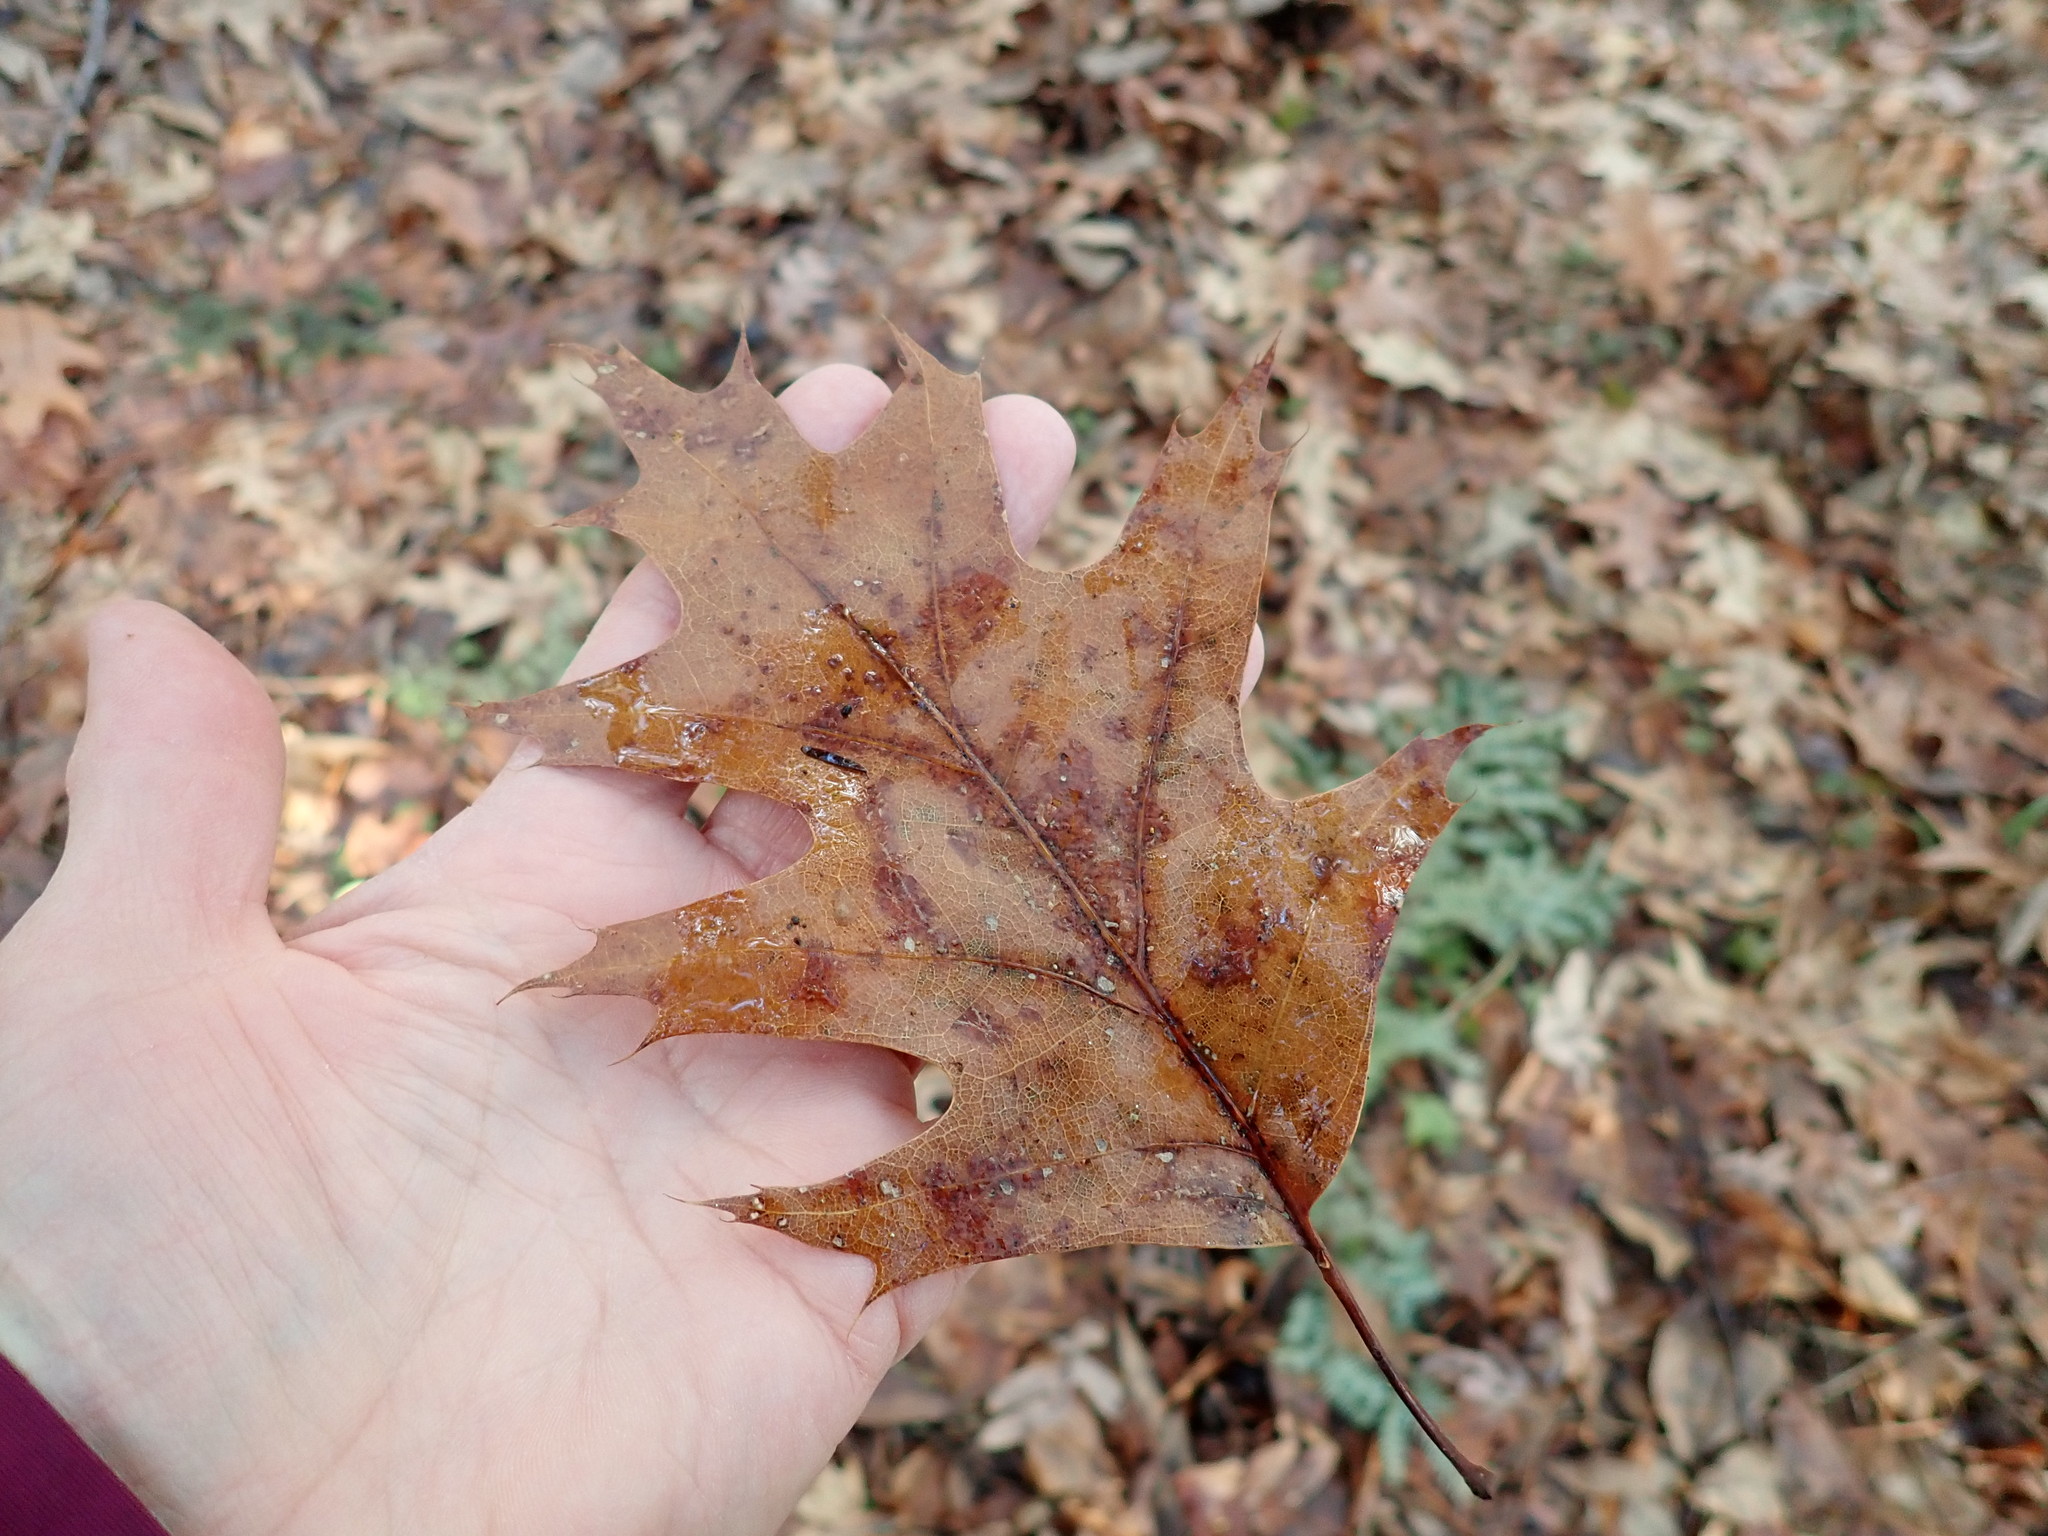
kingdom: Plantae
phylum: Tracheophyta
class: Magnoliopsida
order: Fagales
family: Fagaceae
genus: Quercus
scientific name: Quercus rubra
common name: Red oak
